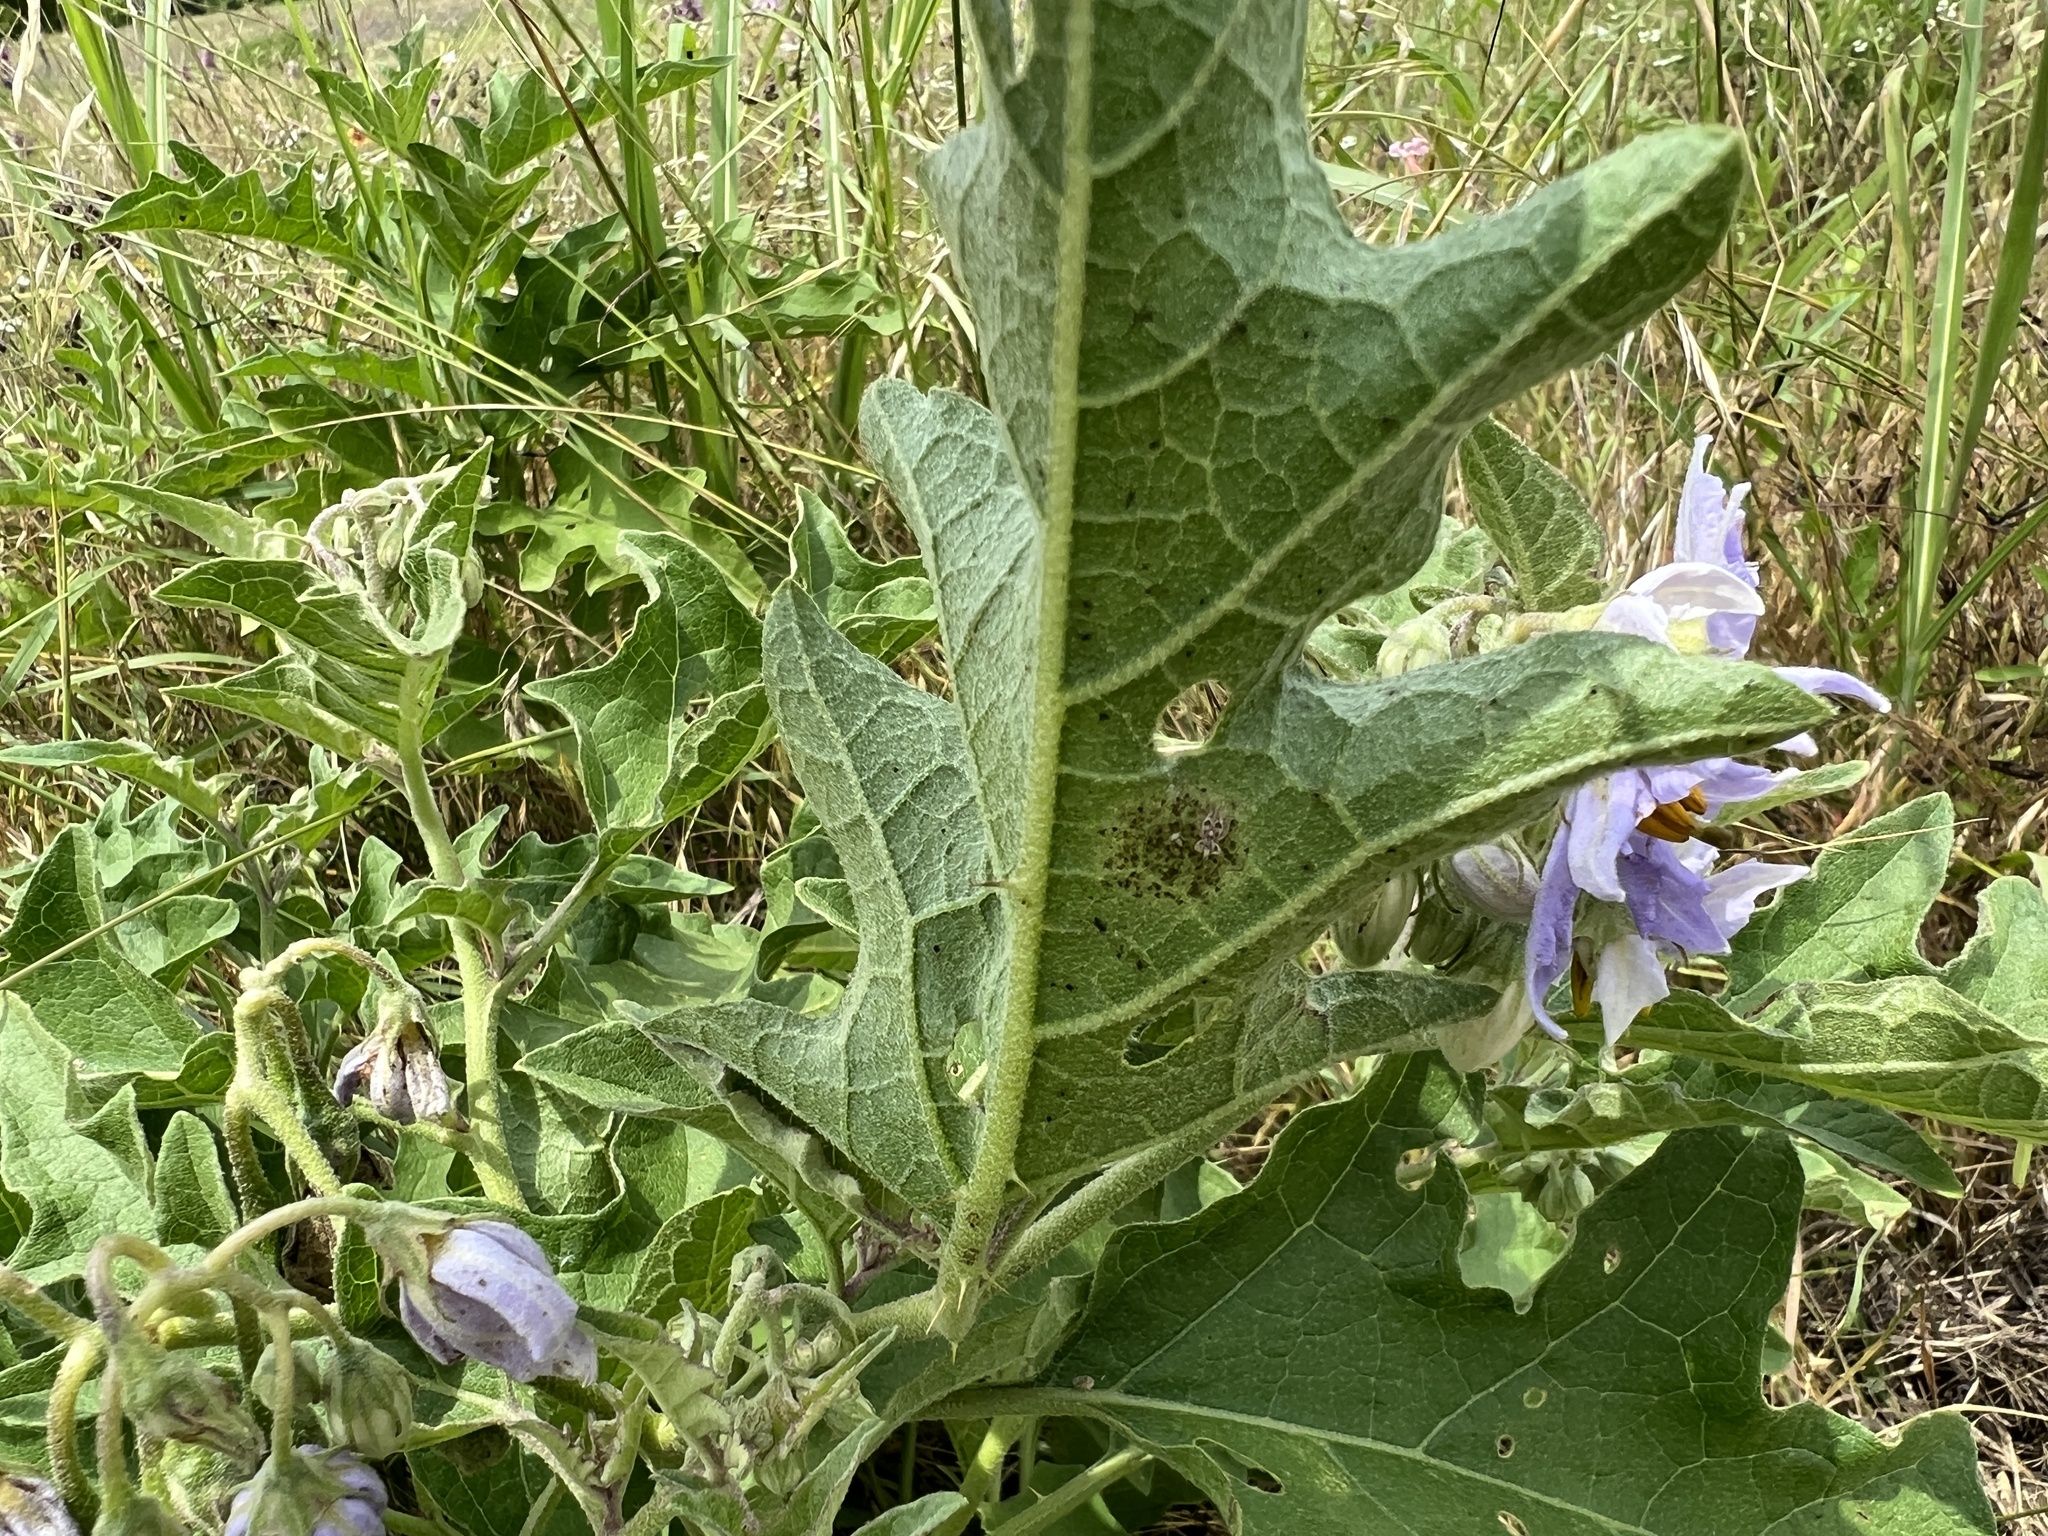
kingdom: Plantae
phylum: Tracheophyta
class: Magnoliopsida
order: Solanales
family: Solanaceae
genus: Solanum
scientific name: Solanum dimidiatum
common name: Carolina horse-nettle
